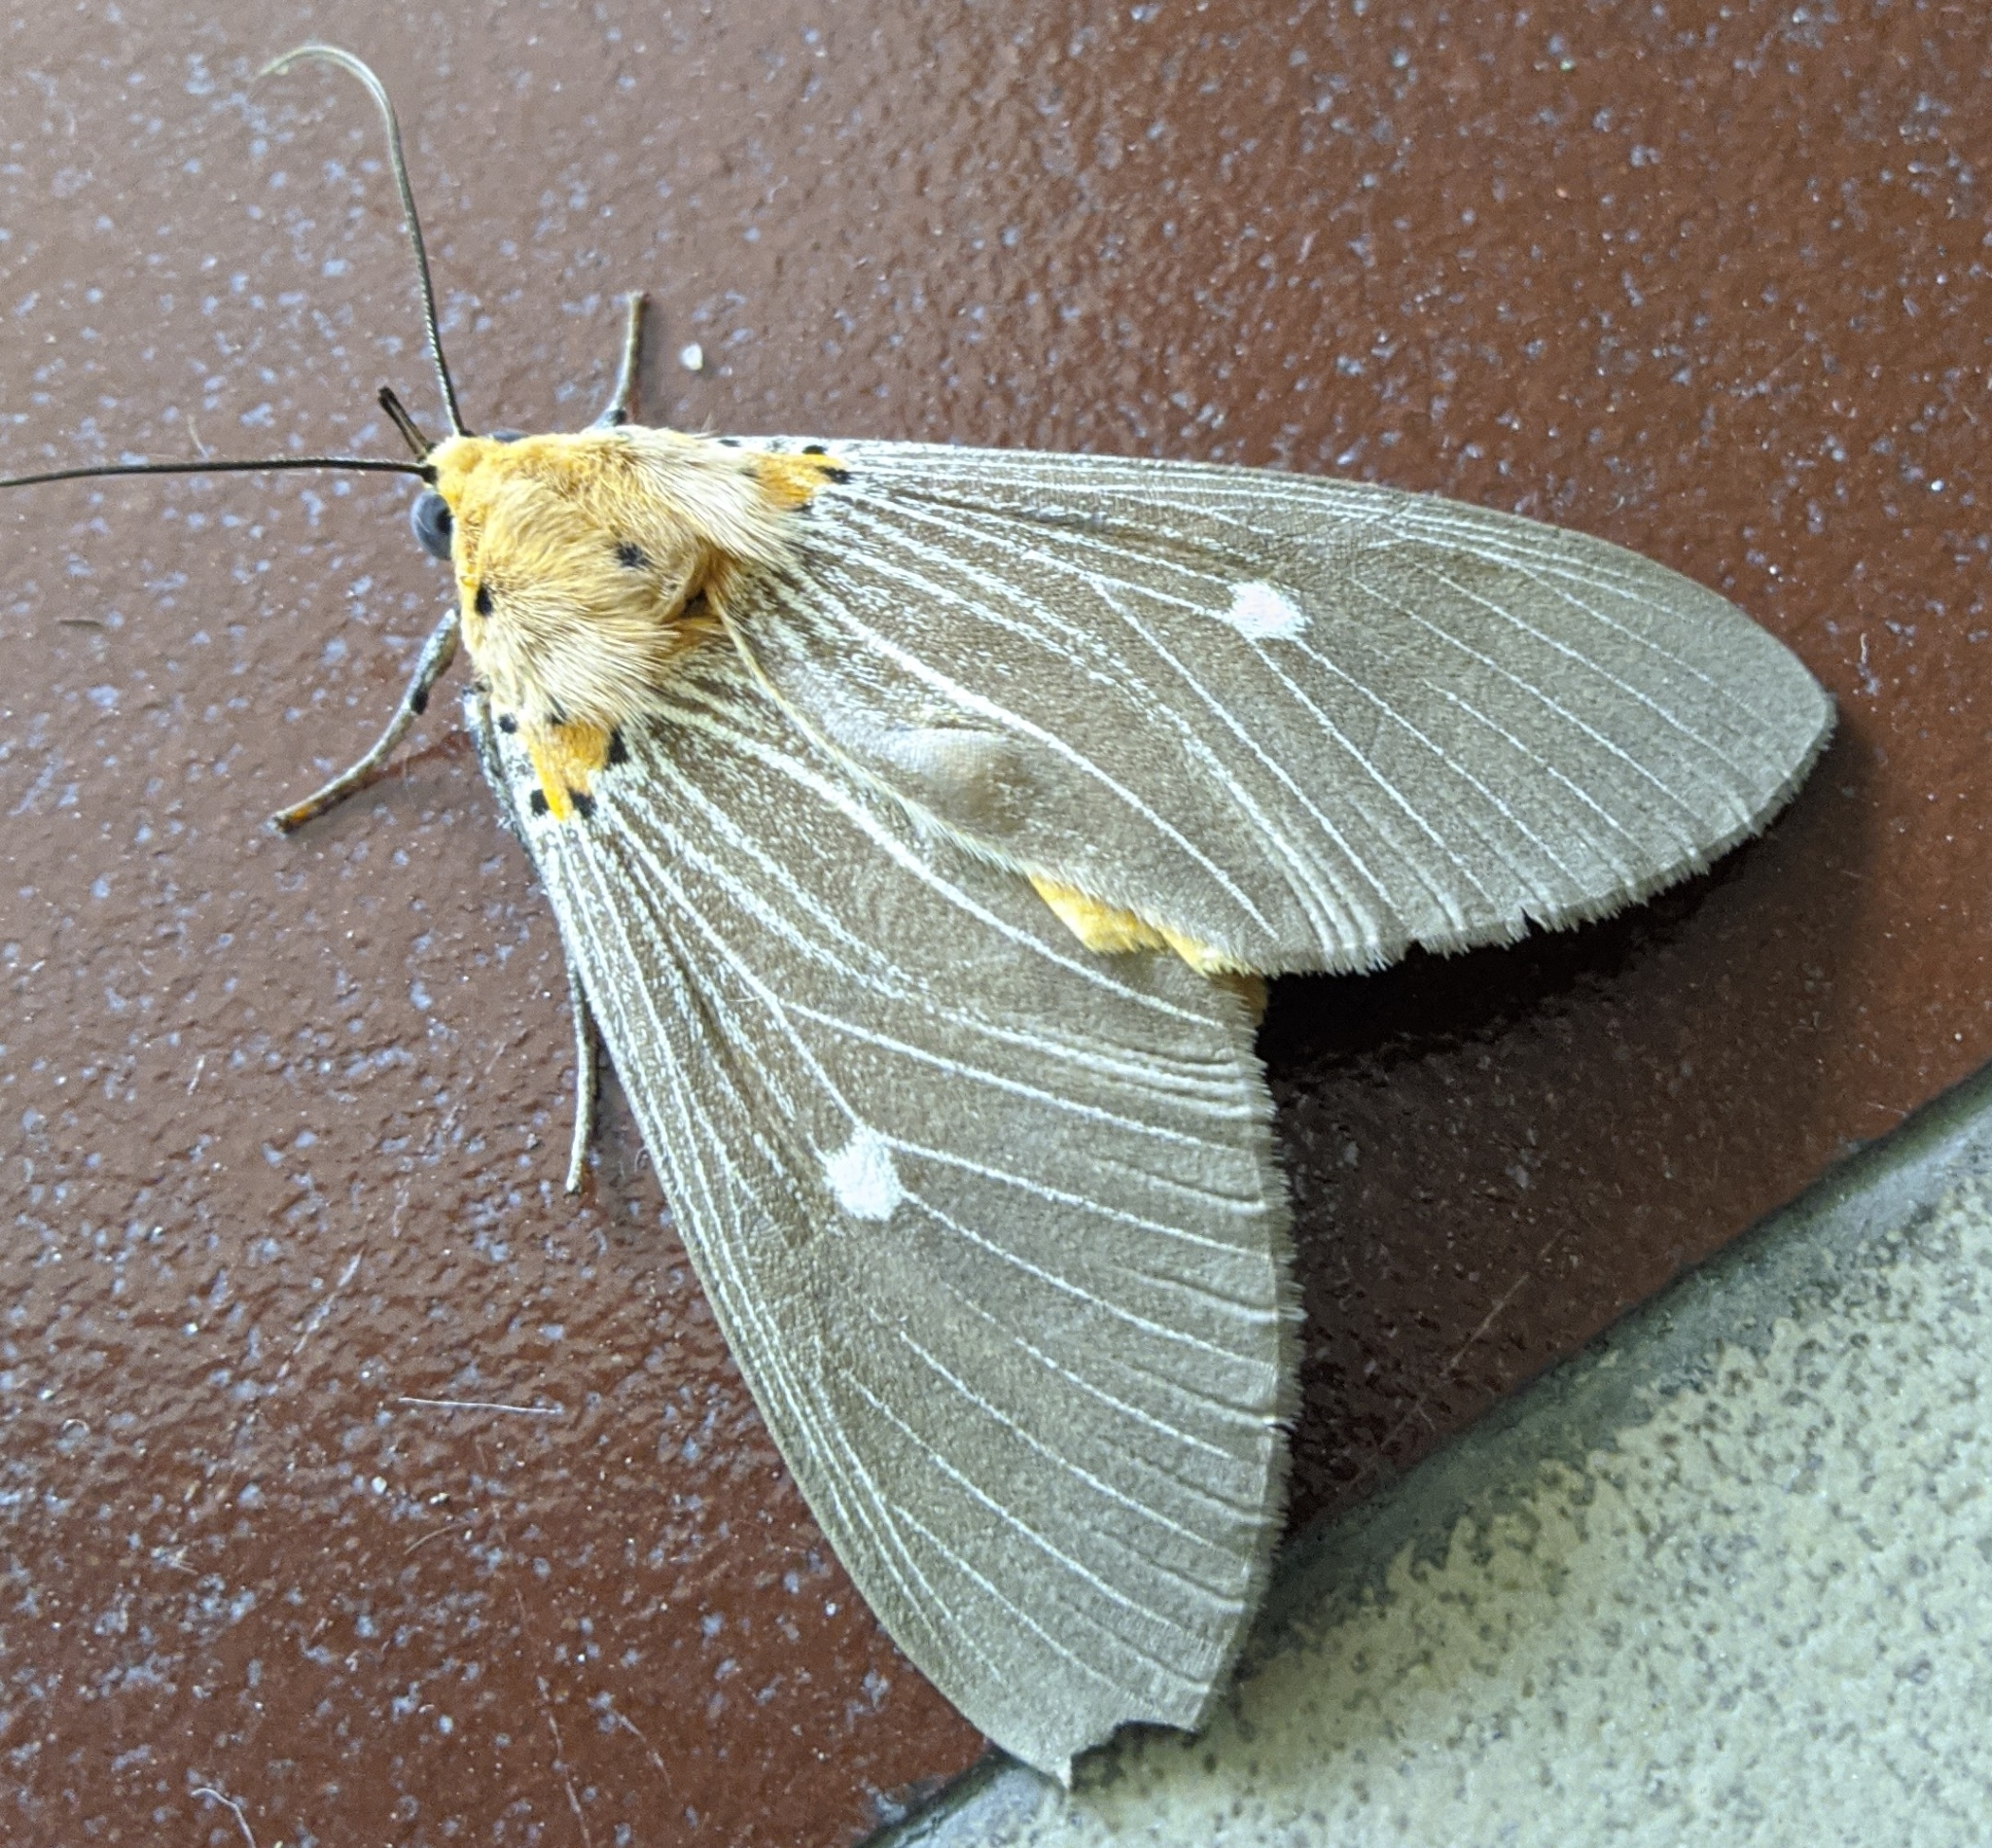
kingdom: Animalia
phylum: Arthropoda
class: Insecta
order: Lepidoptera
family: Erebidae
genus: Asota
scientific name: Asota caricae
